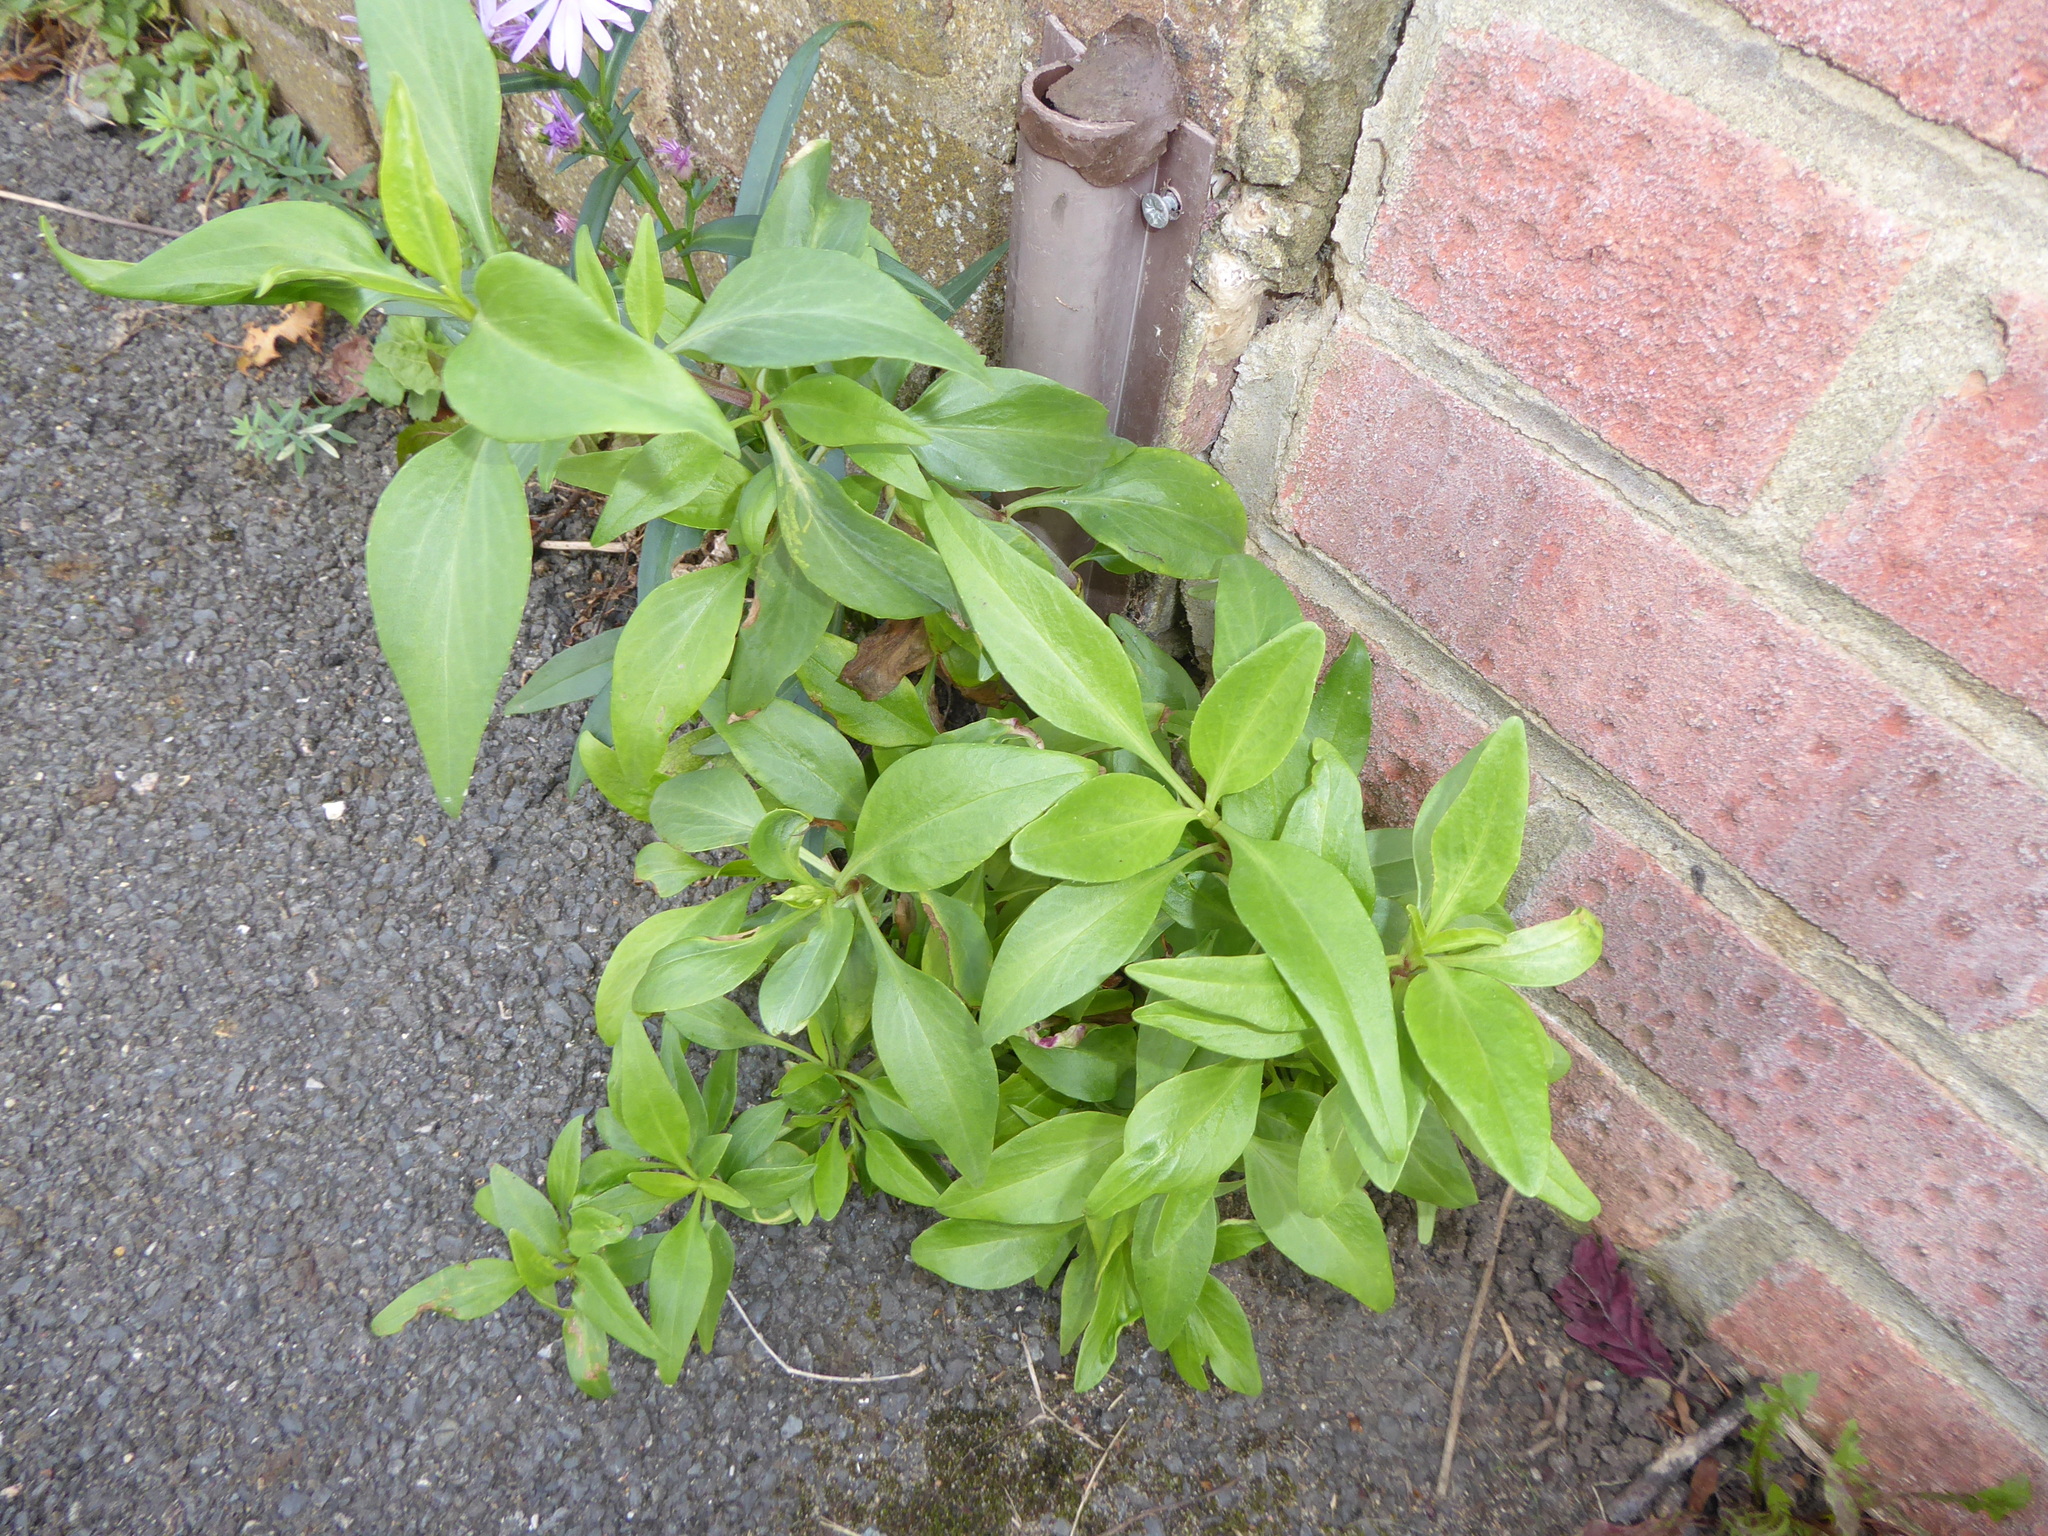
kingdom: Plantae
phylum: Tracheophyta
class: Magnoliopsida
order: Dipsacales
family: Caprifoliaceae
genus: Centranthus
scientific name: Centranthus ruber
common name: Red valerian
